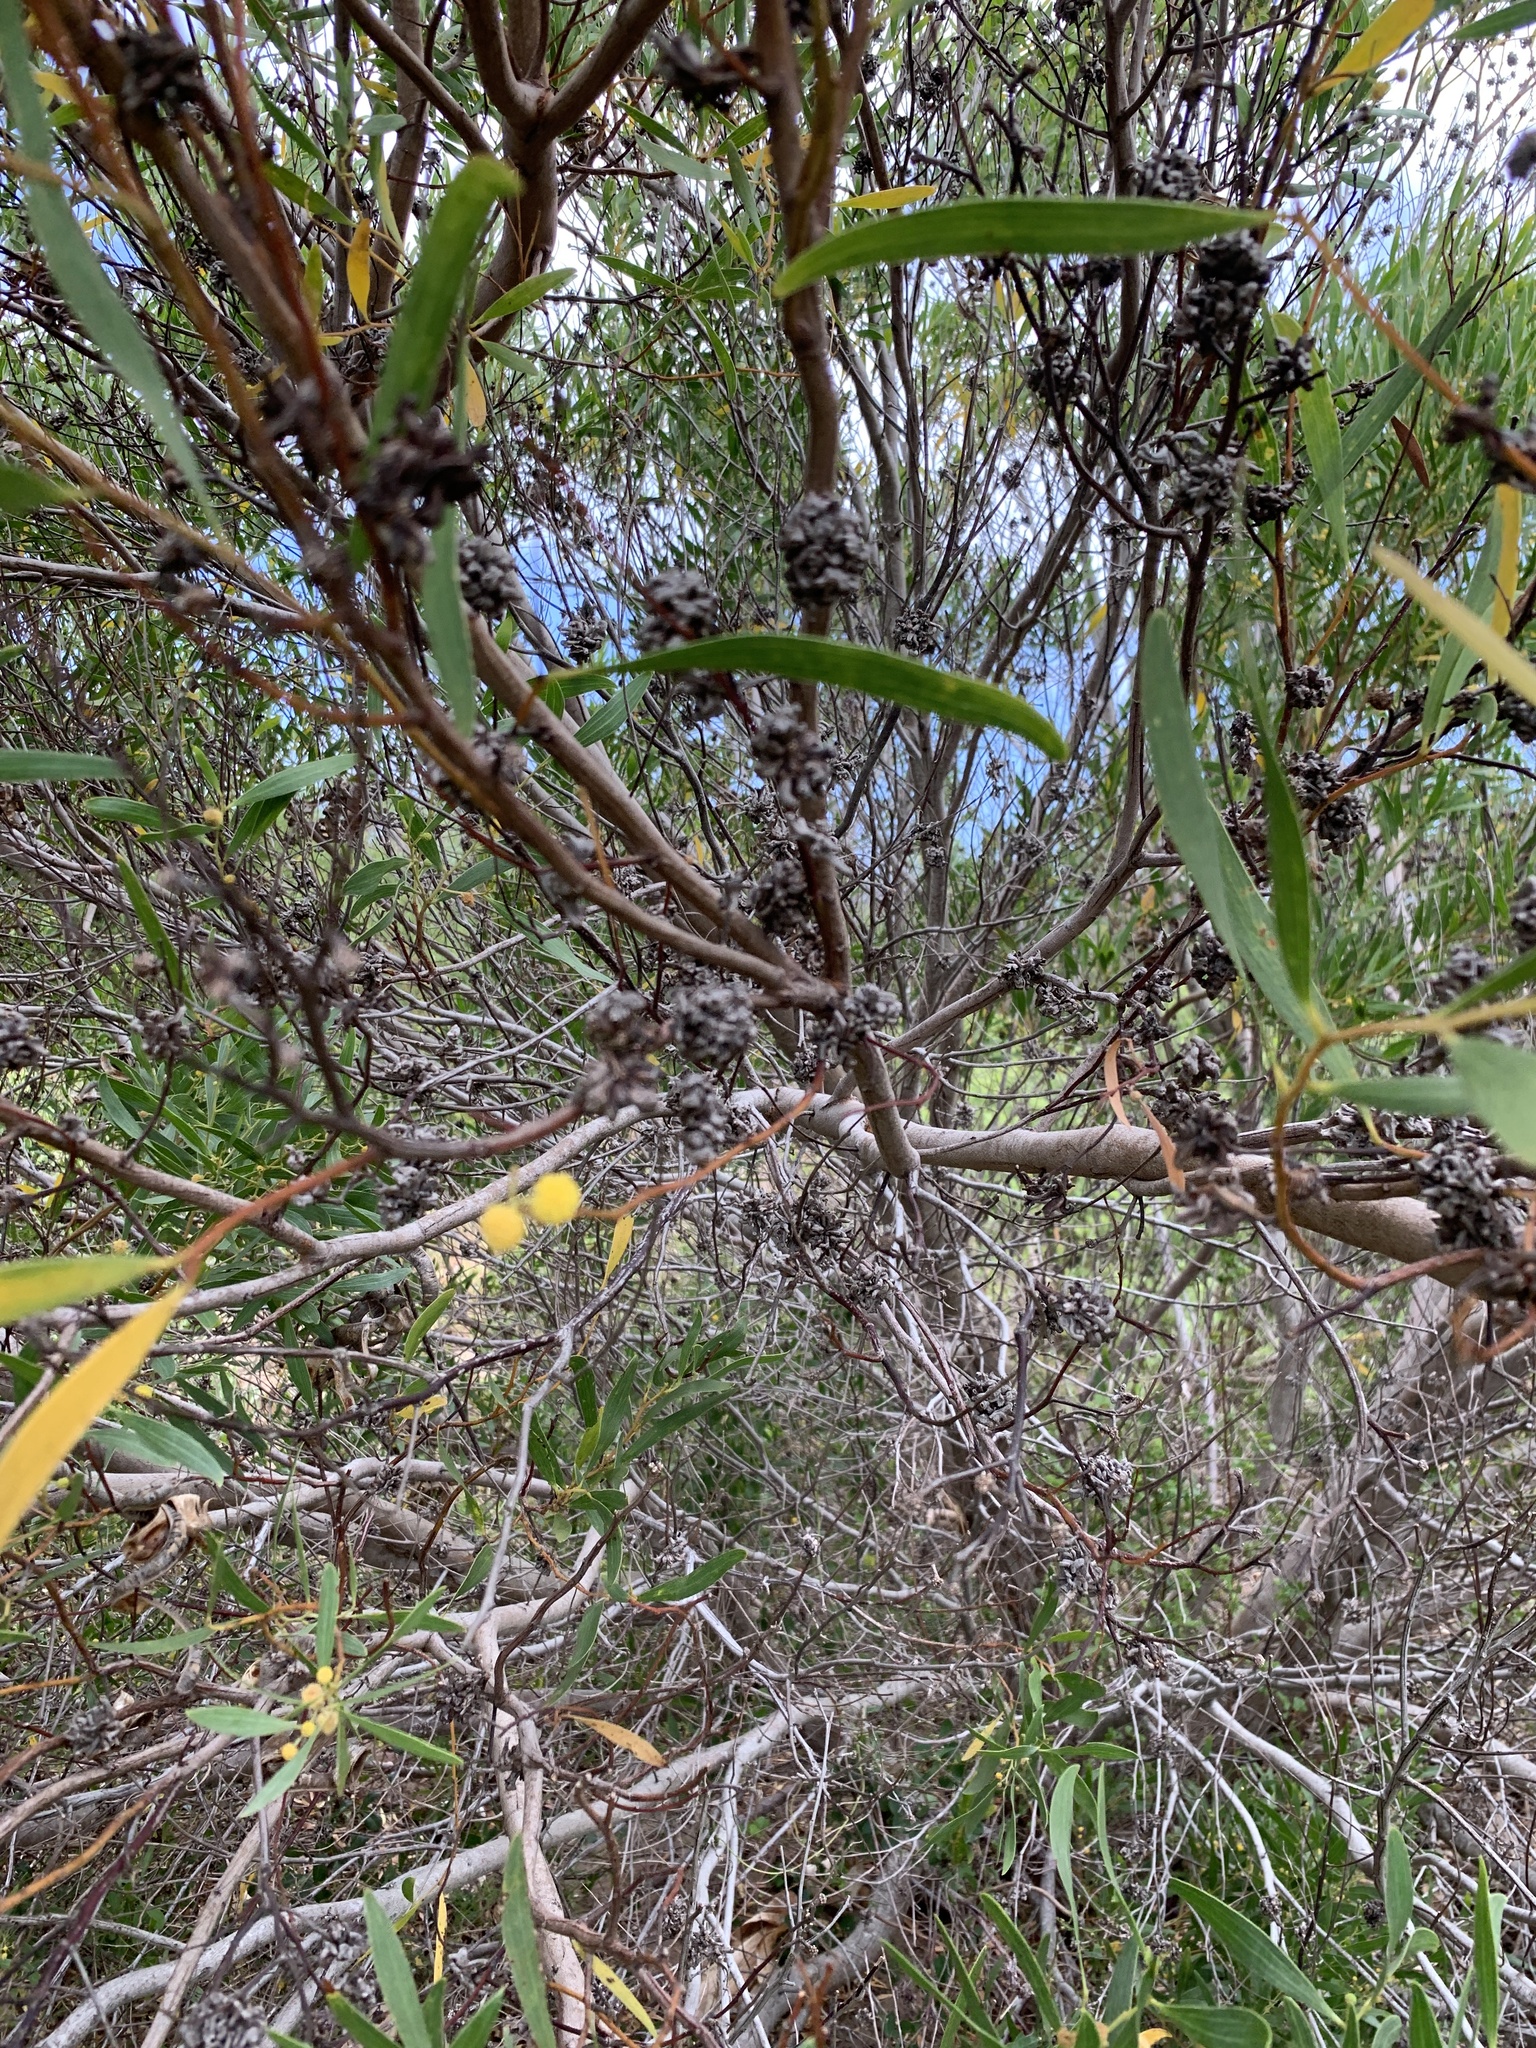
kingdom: Animalia
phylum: Arthropoda
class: Insecta
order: Diptera
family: Cecidomyiidae
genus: Dasineura
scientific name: Dasineura dielsi
